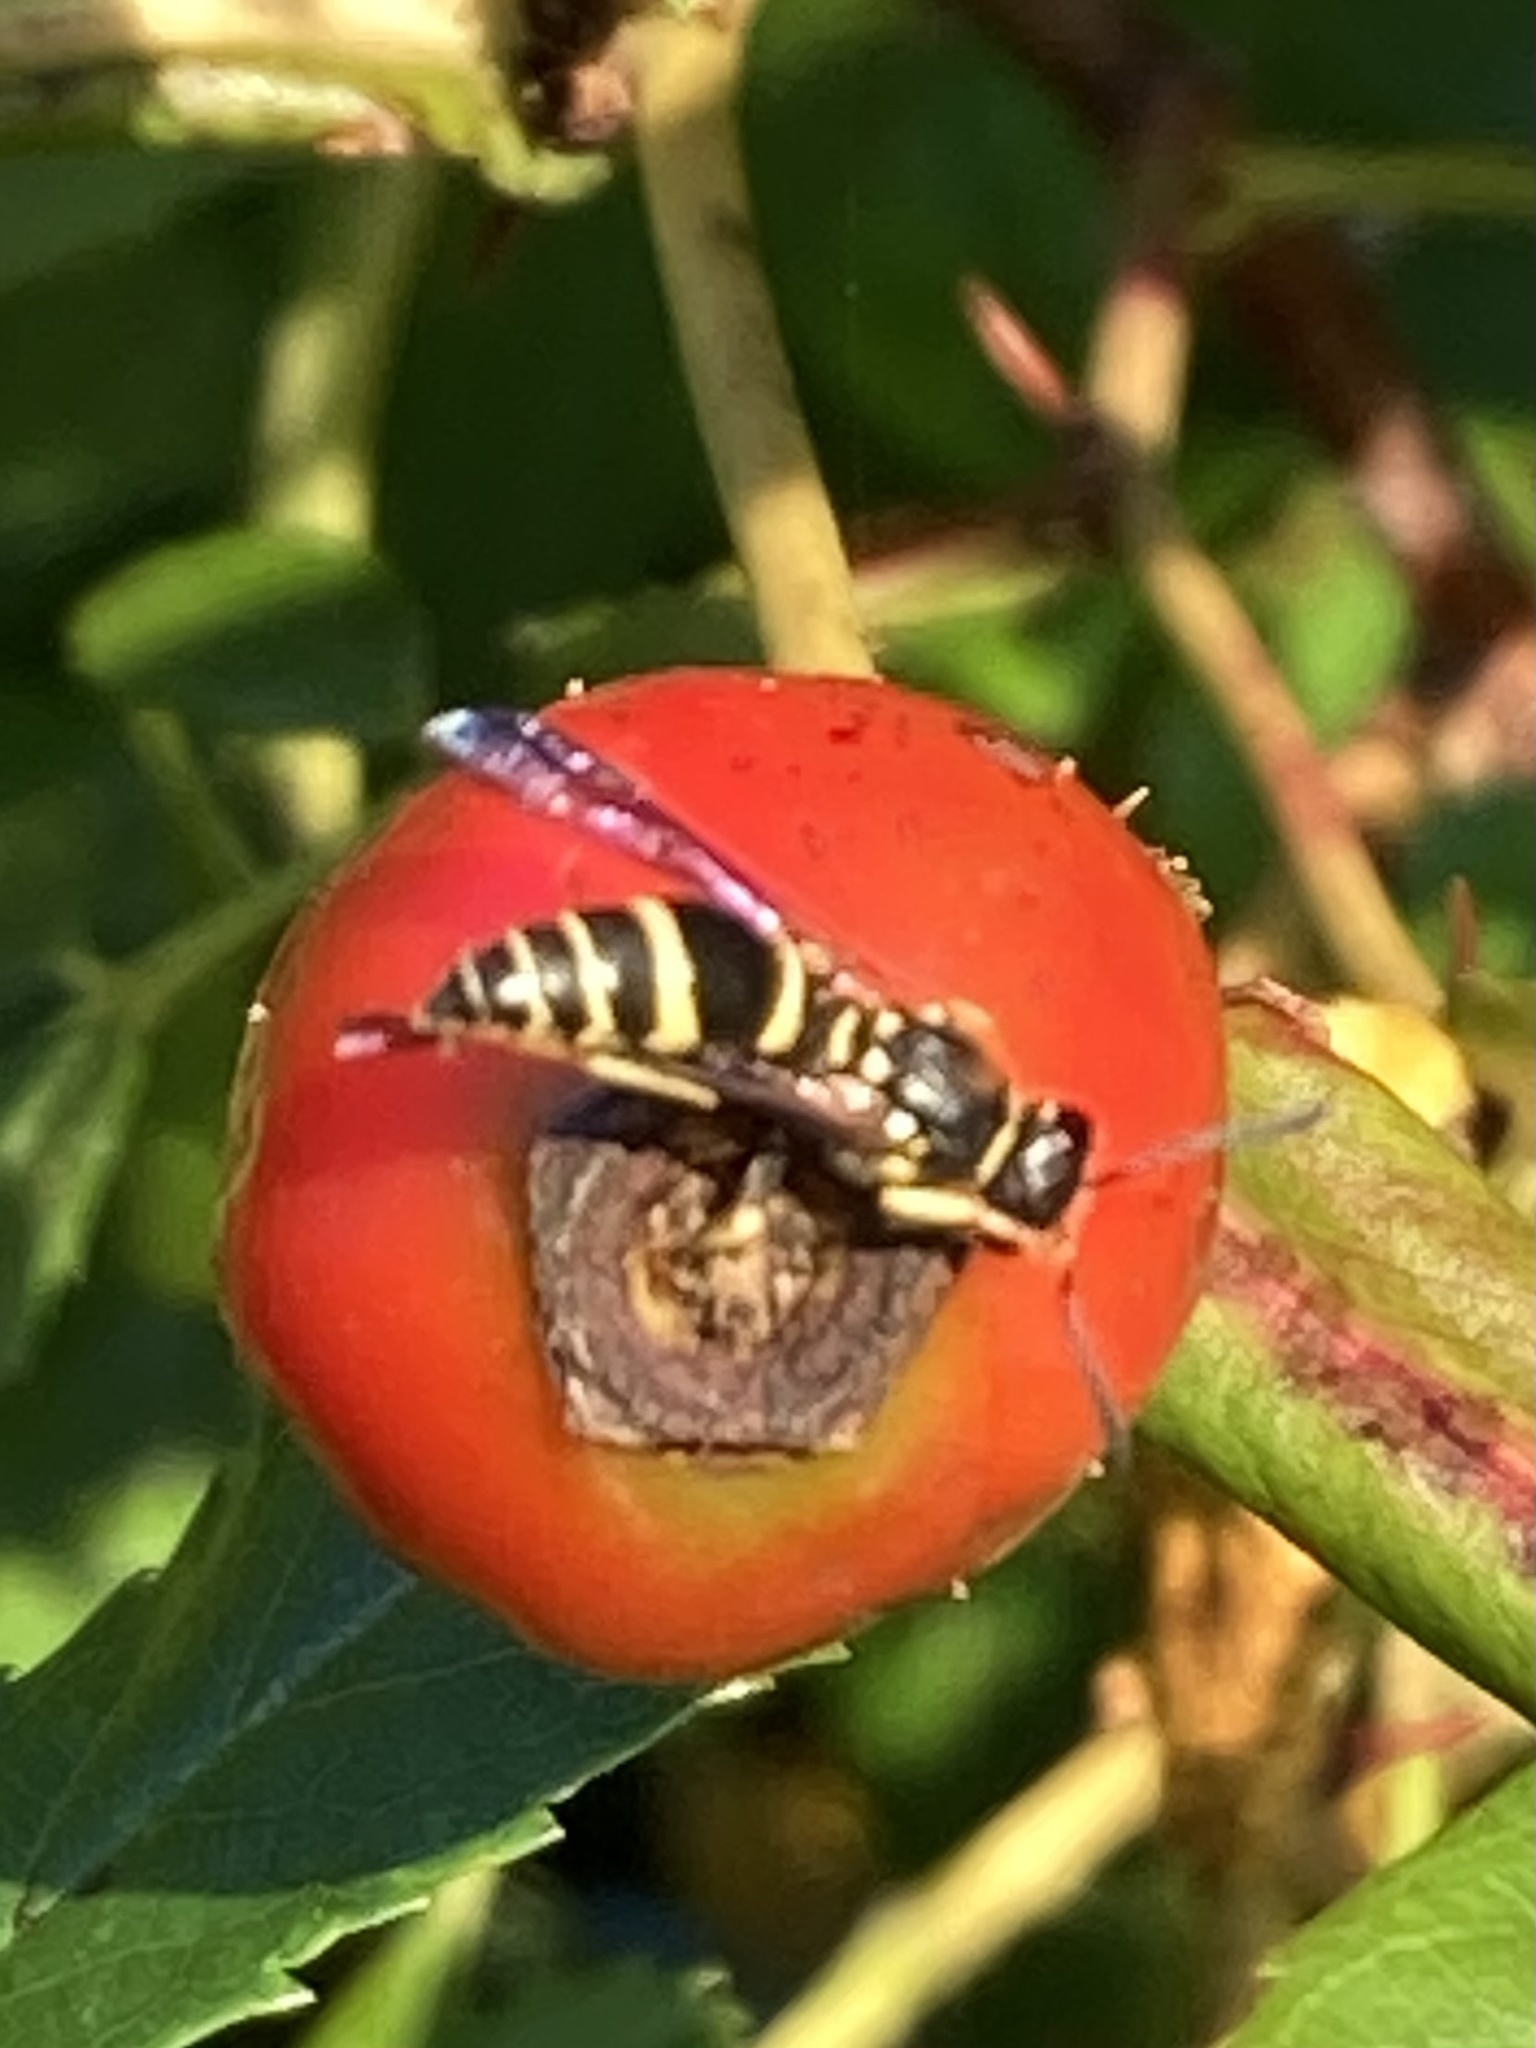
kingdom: Animalia
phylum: Arthropoda
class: Insecta
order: Hymenoptera
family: Vespidae
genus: Ancistrocerus
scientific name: Ancistrocerus adiabatus
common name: Bramble mason wasp
